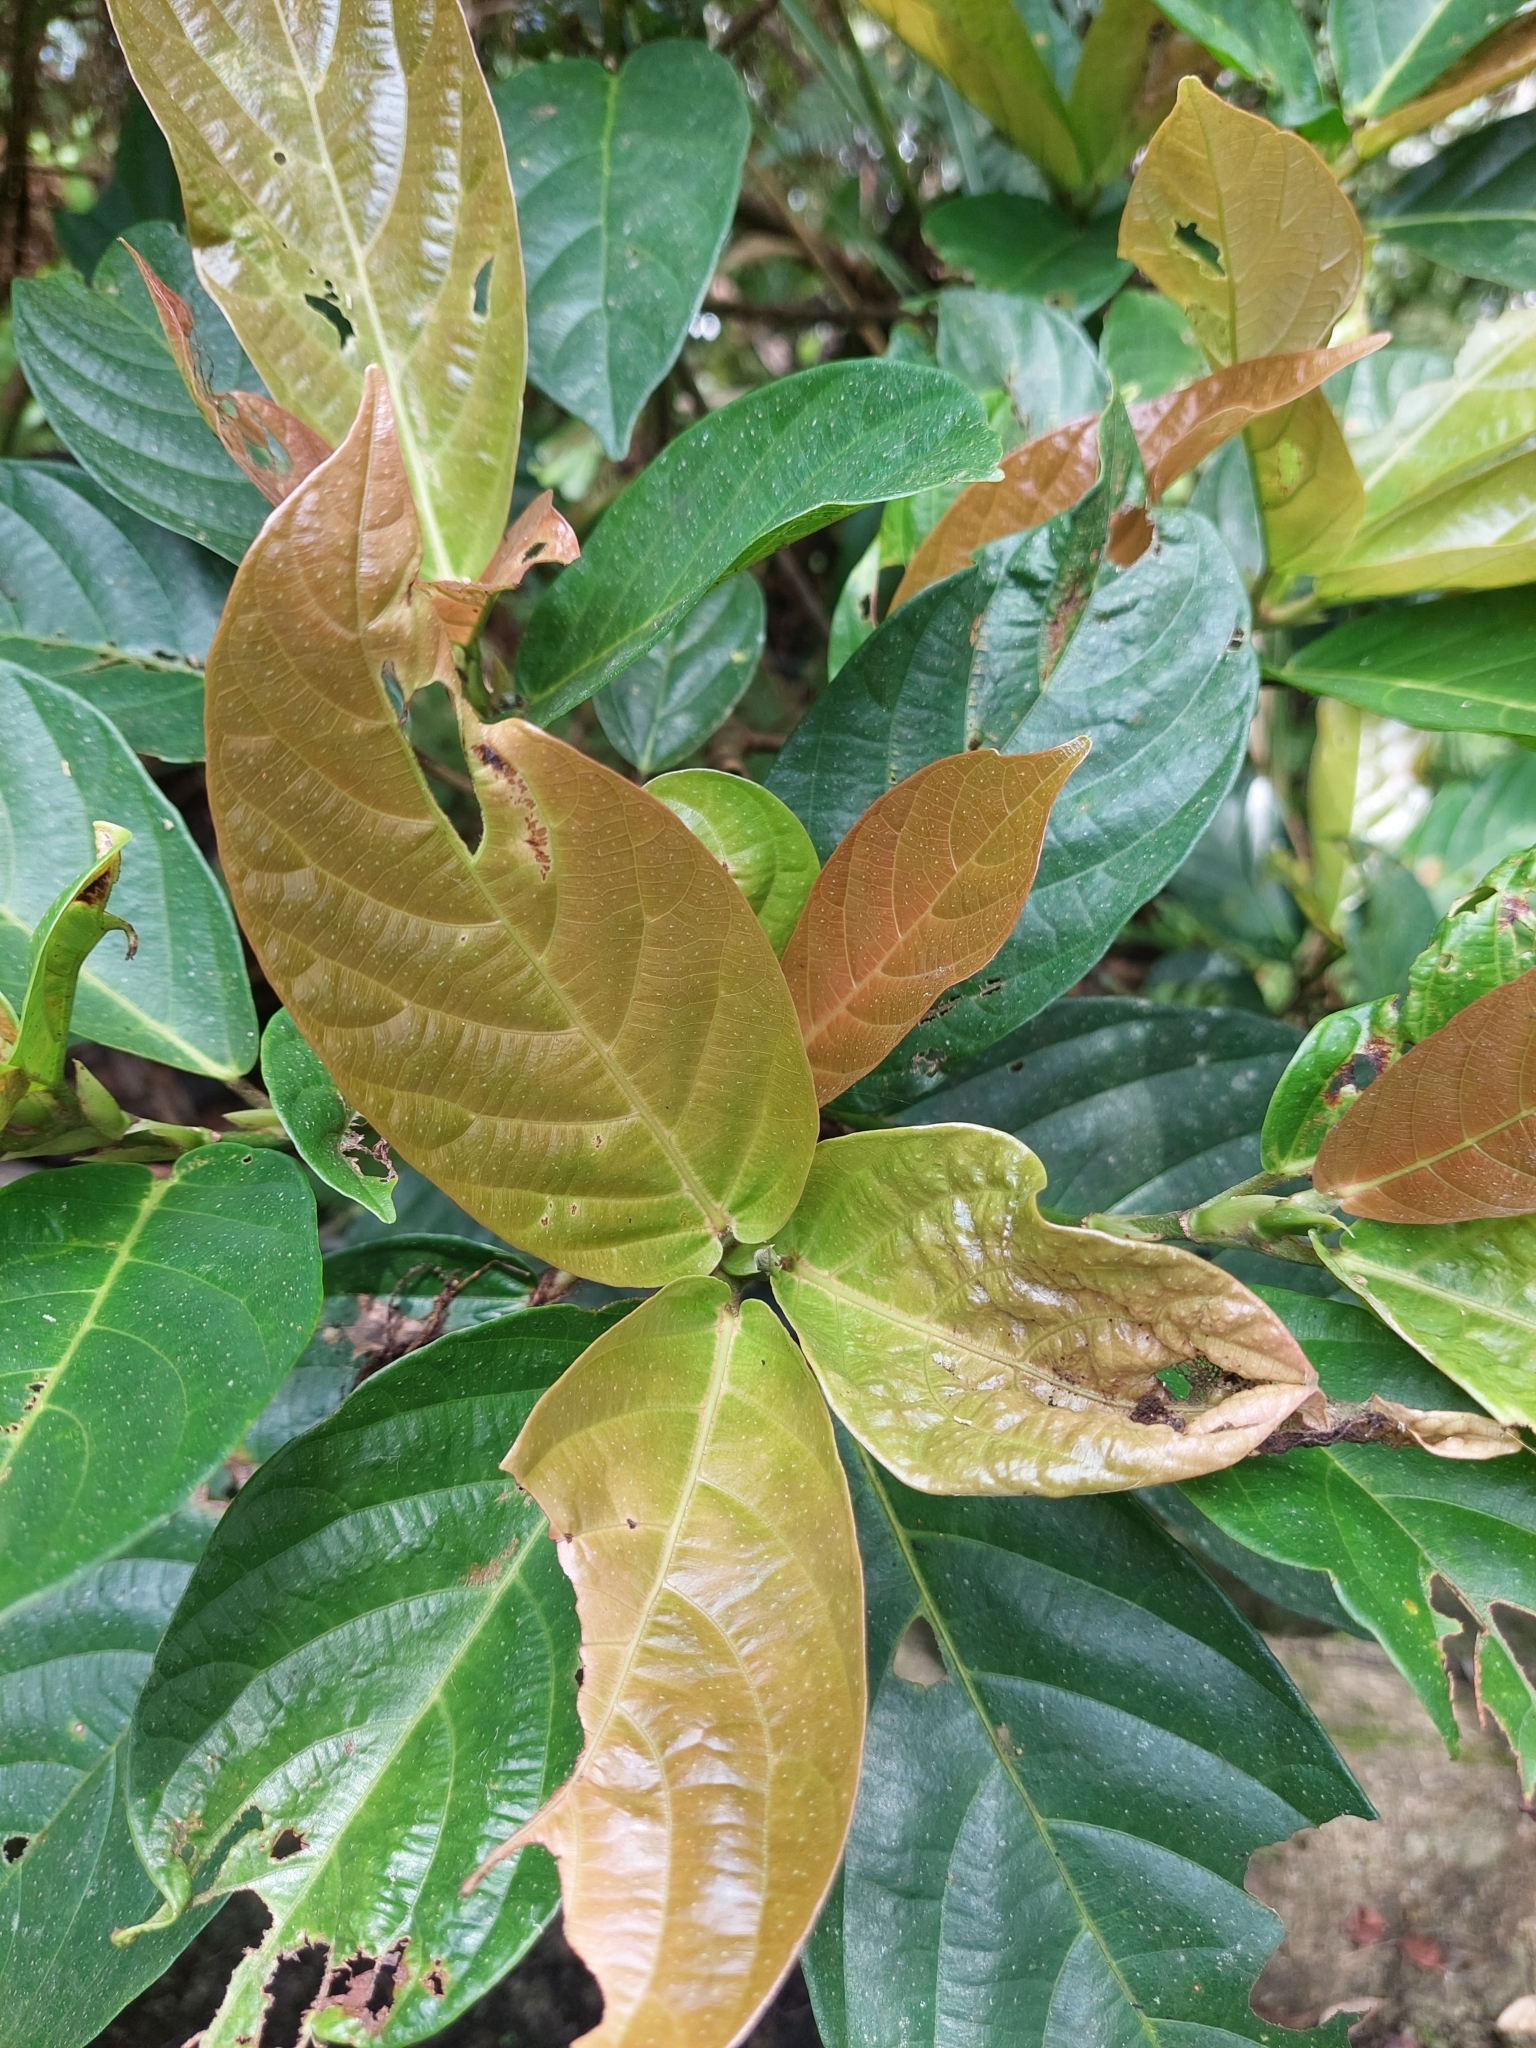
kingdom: Plantae
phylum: Tracheophyta
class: Magnoliopsida
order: Rosales
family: Moraceae
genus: Ficus
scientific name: Ficus benguetensis
